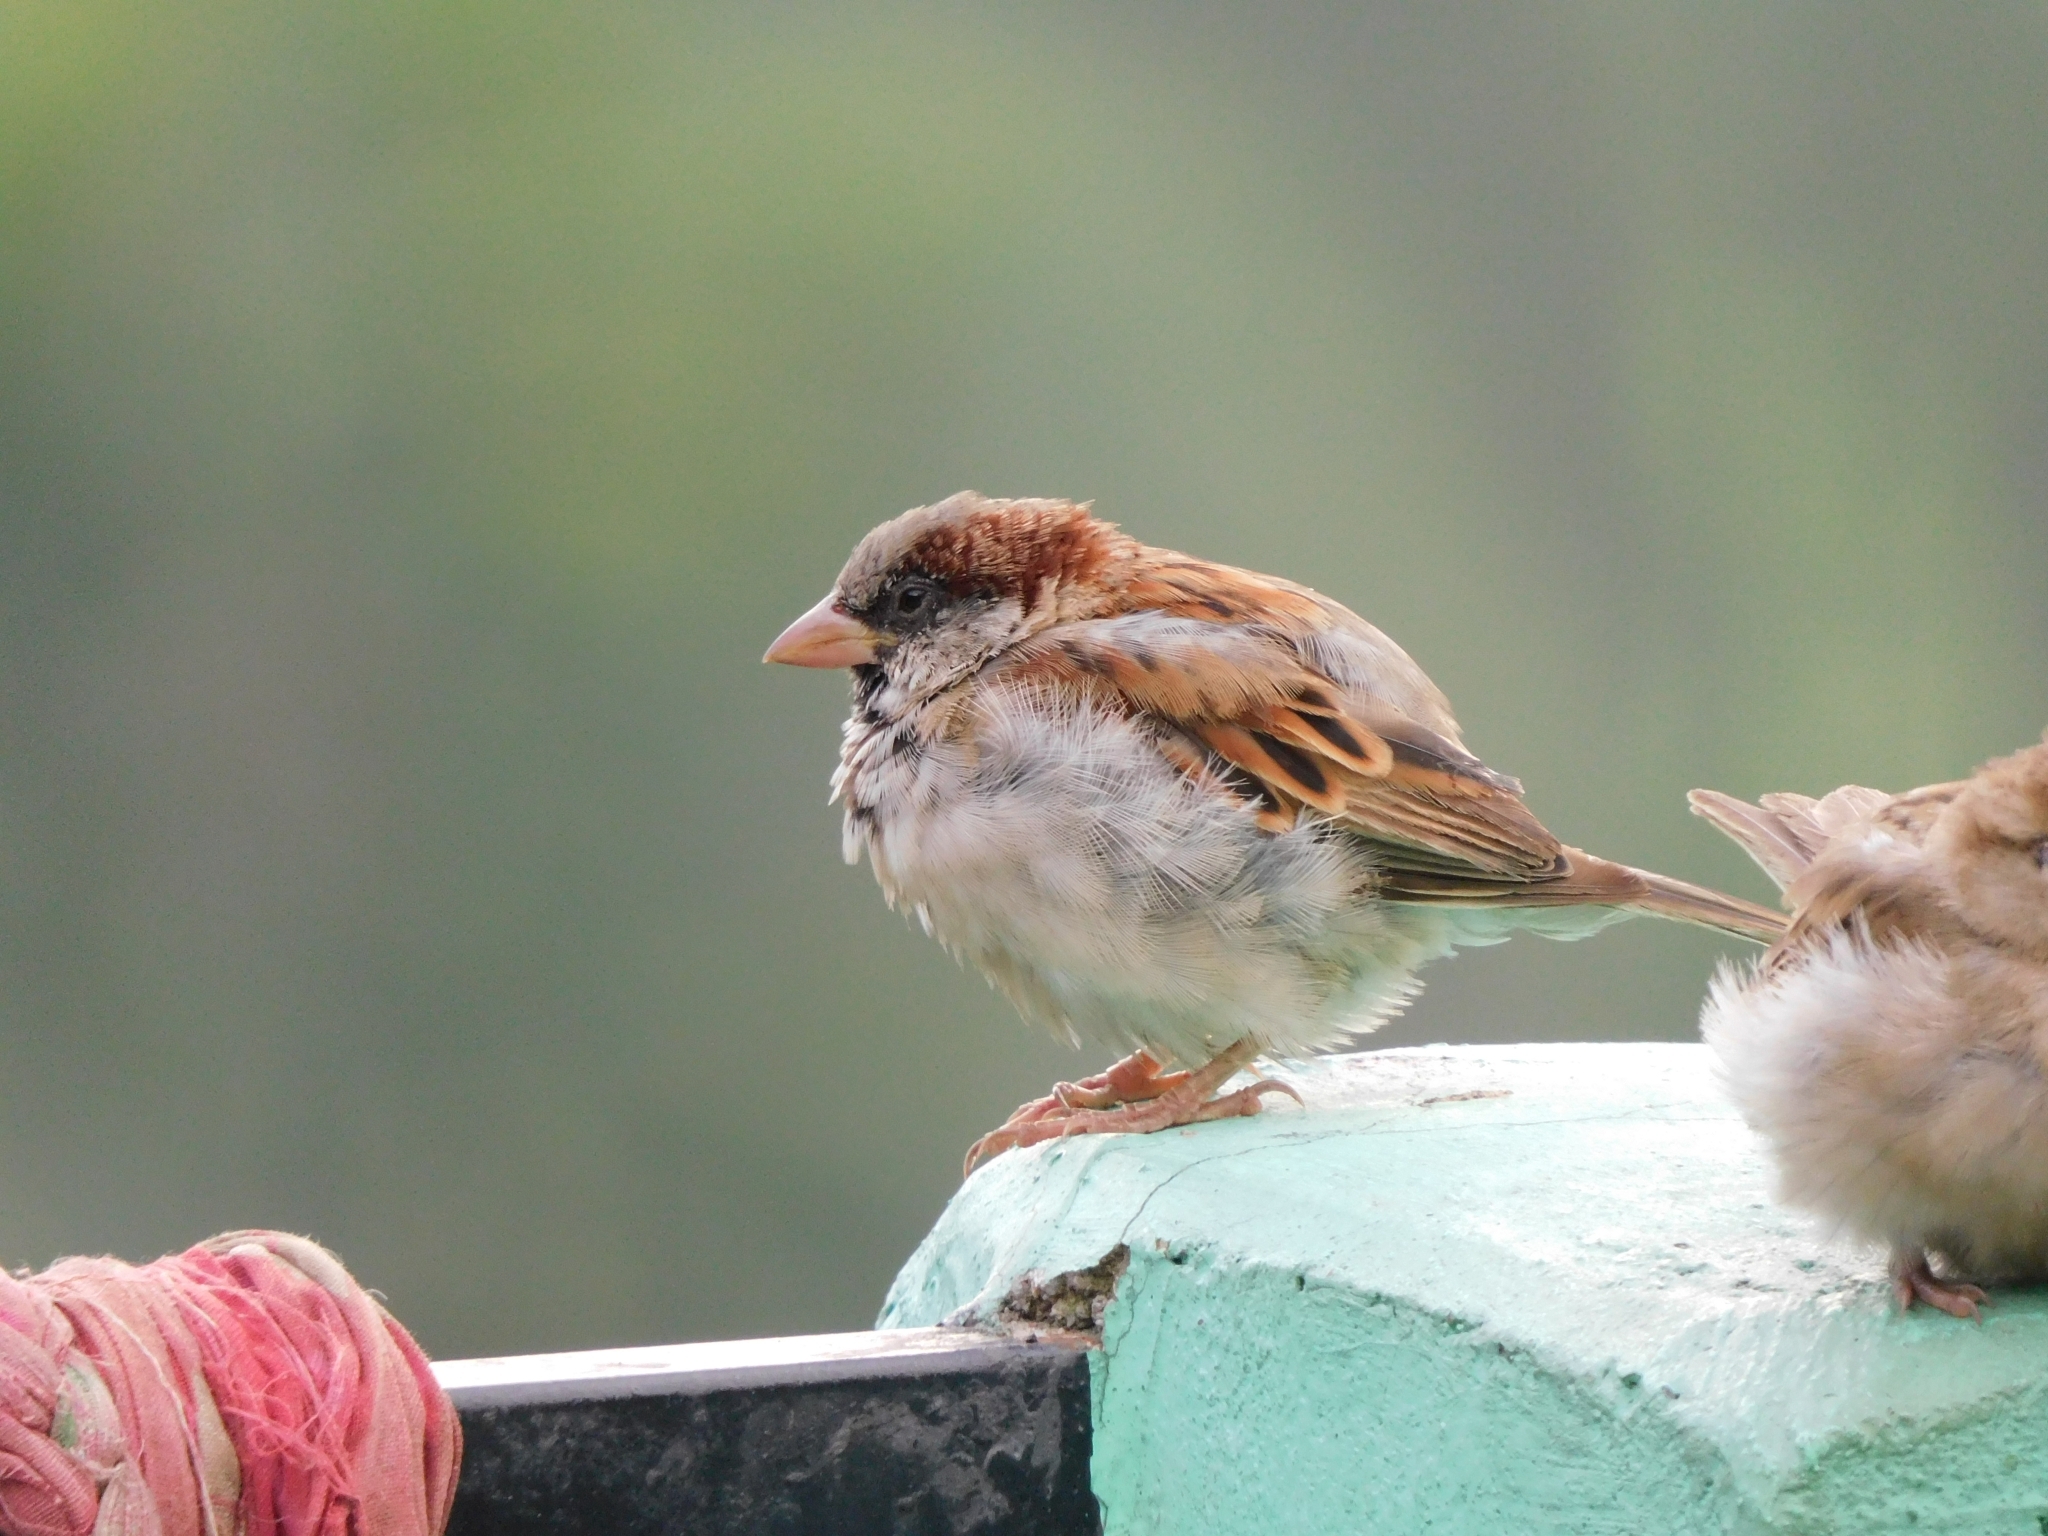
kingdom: Animalia
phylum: Chordata
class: Aves
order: Passeriformes
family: Passeridae
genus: Passer
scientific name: Passer domesticus
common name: House sparrow
